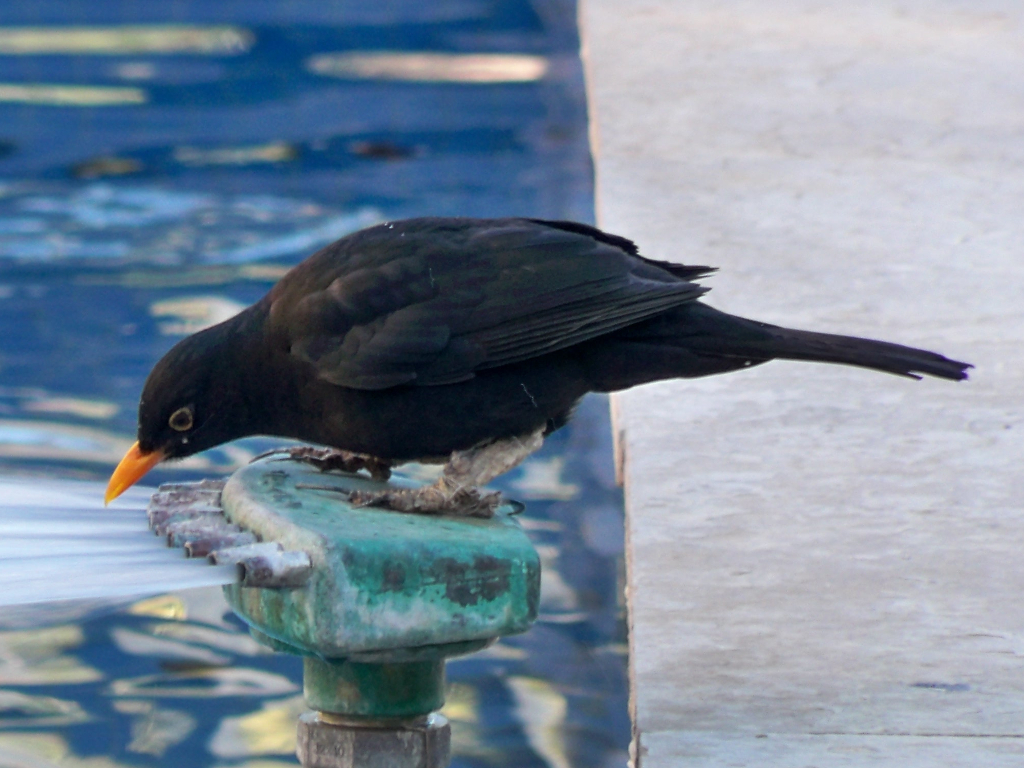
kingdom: Animalia
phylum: Chordata
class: Aves
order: Passeriformes
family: Turdidae
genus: Turdus
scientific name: Turdus merula
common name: Common blackbird
